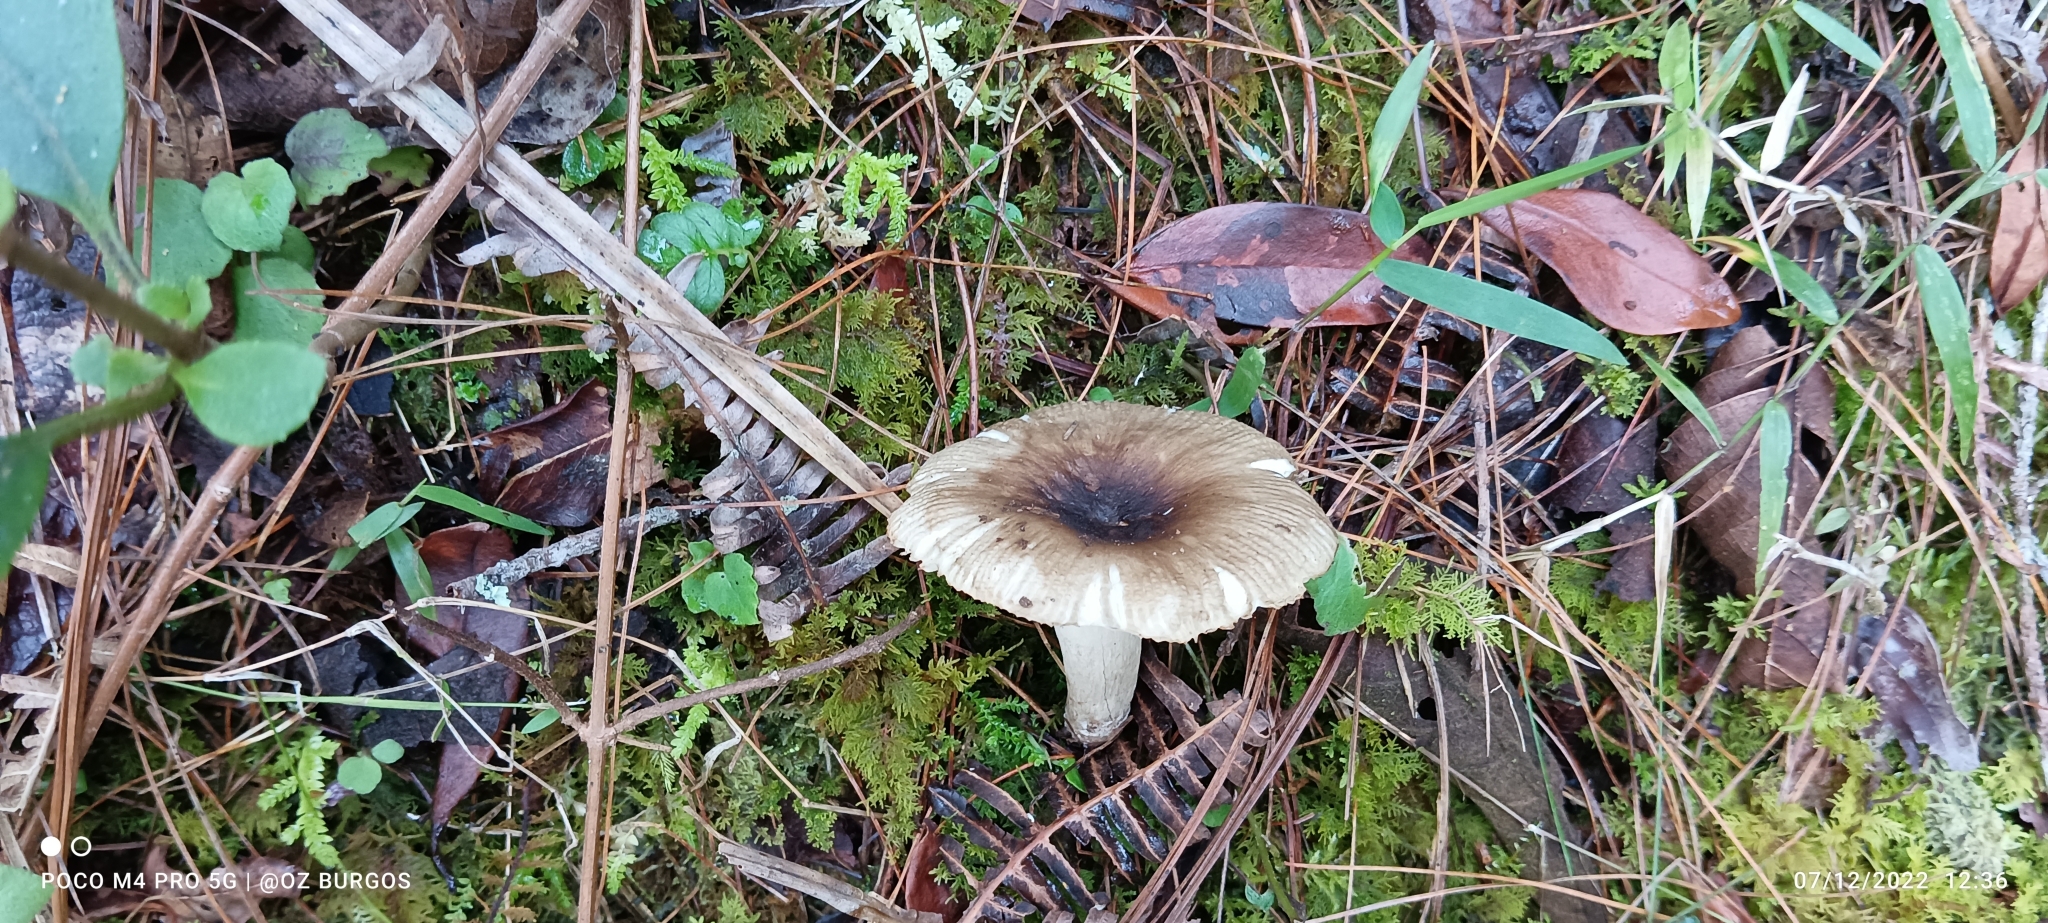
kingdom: Fungi
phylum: Basidiomycota
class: Agaricomycetes
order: Russulales
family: Russulaceae
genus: Russula
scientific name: Russula iterika
